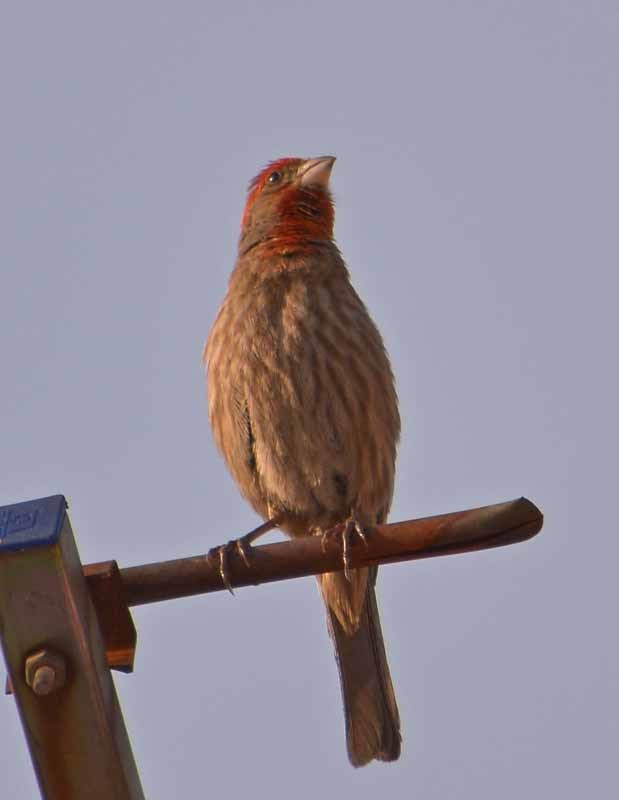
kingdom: Animalia
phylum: Chordata
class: Aves
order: Passeriformes
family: Fringillidae
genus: Haemorhous
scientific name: Haemorhous mexicanus
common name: House finch
